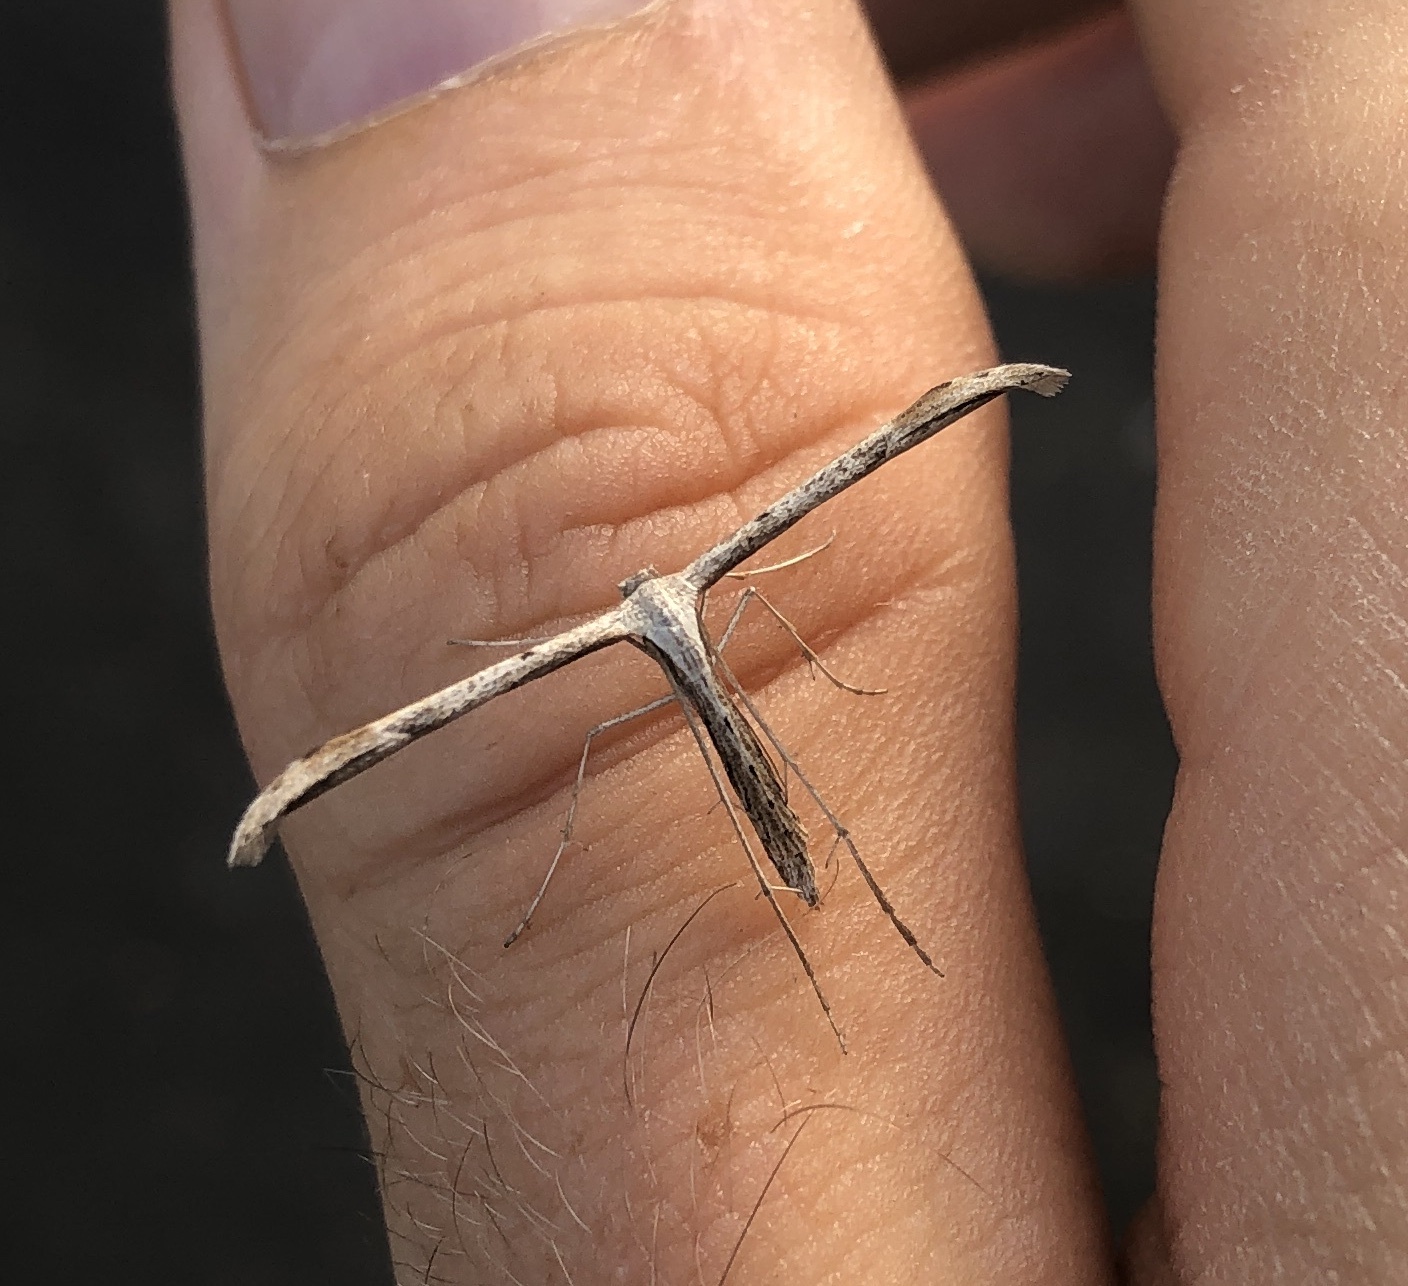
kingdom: Animalia
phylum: Arthropoda
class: Insecta
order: Lepidoptera
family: Pterophoridae
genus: Emmelina
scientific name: Emmelina monodactyla
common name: Common plume
